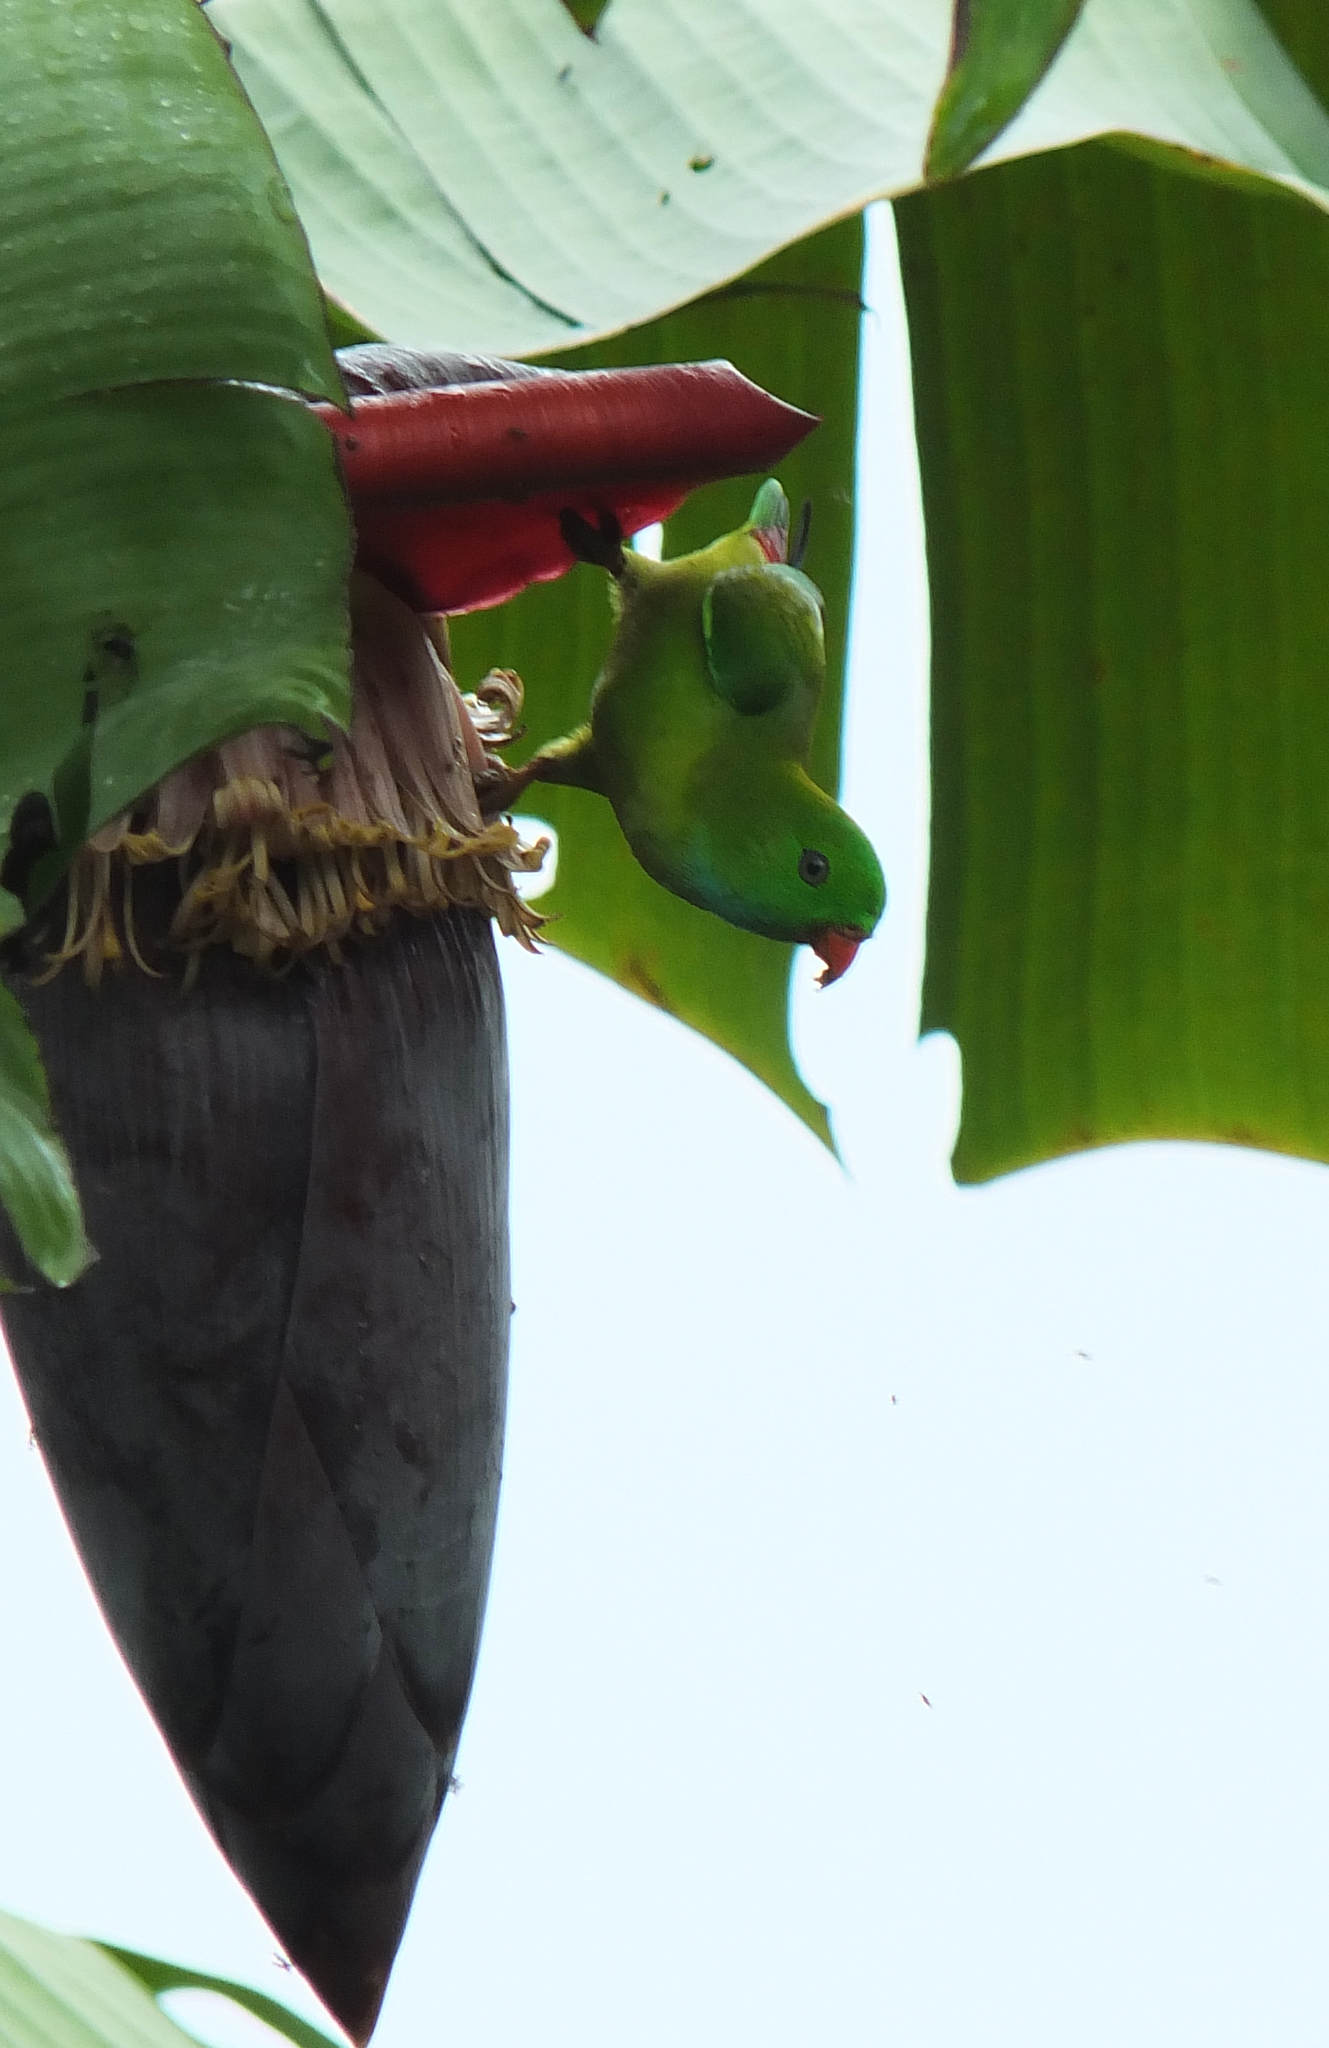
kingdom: Animalia
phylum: Chordata
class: Aves
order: Psittaciformes
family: Psittacidae
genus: Loriculus
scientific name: Loriculus vernalis
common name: Vernal hanging parrot
